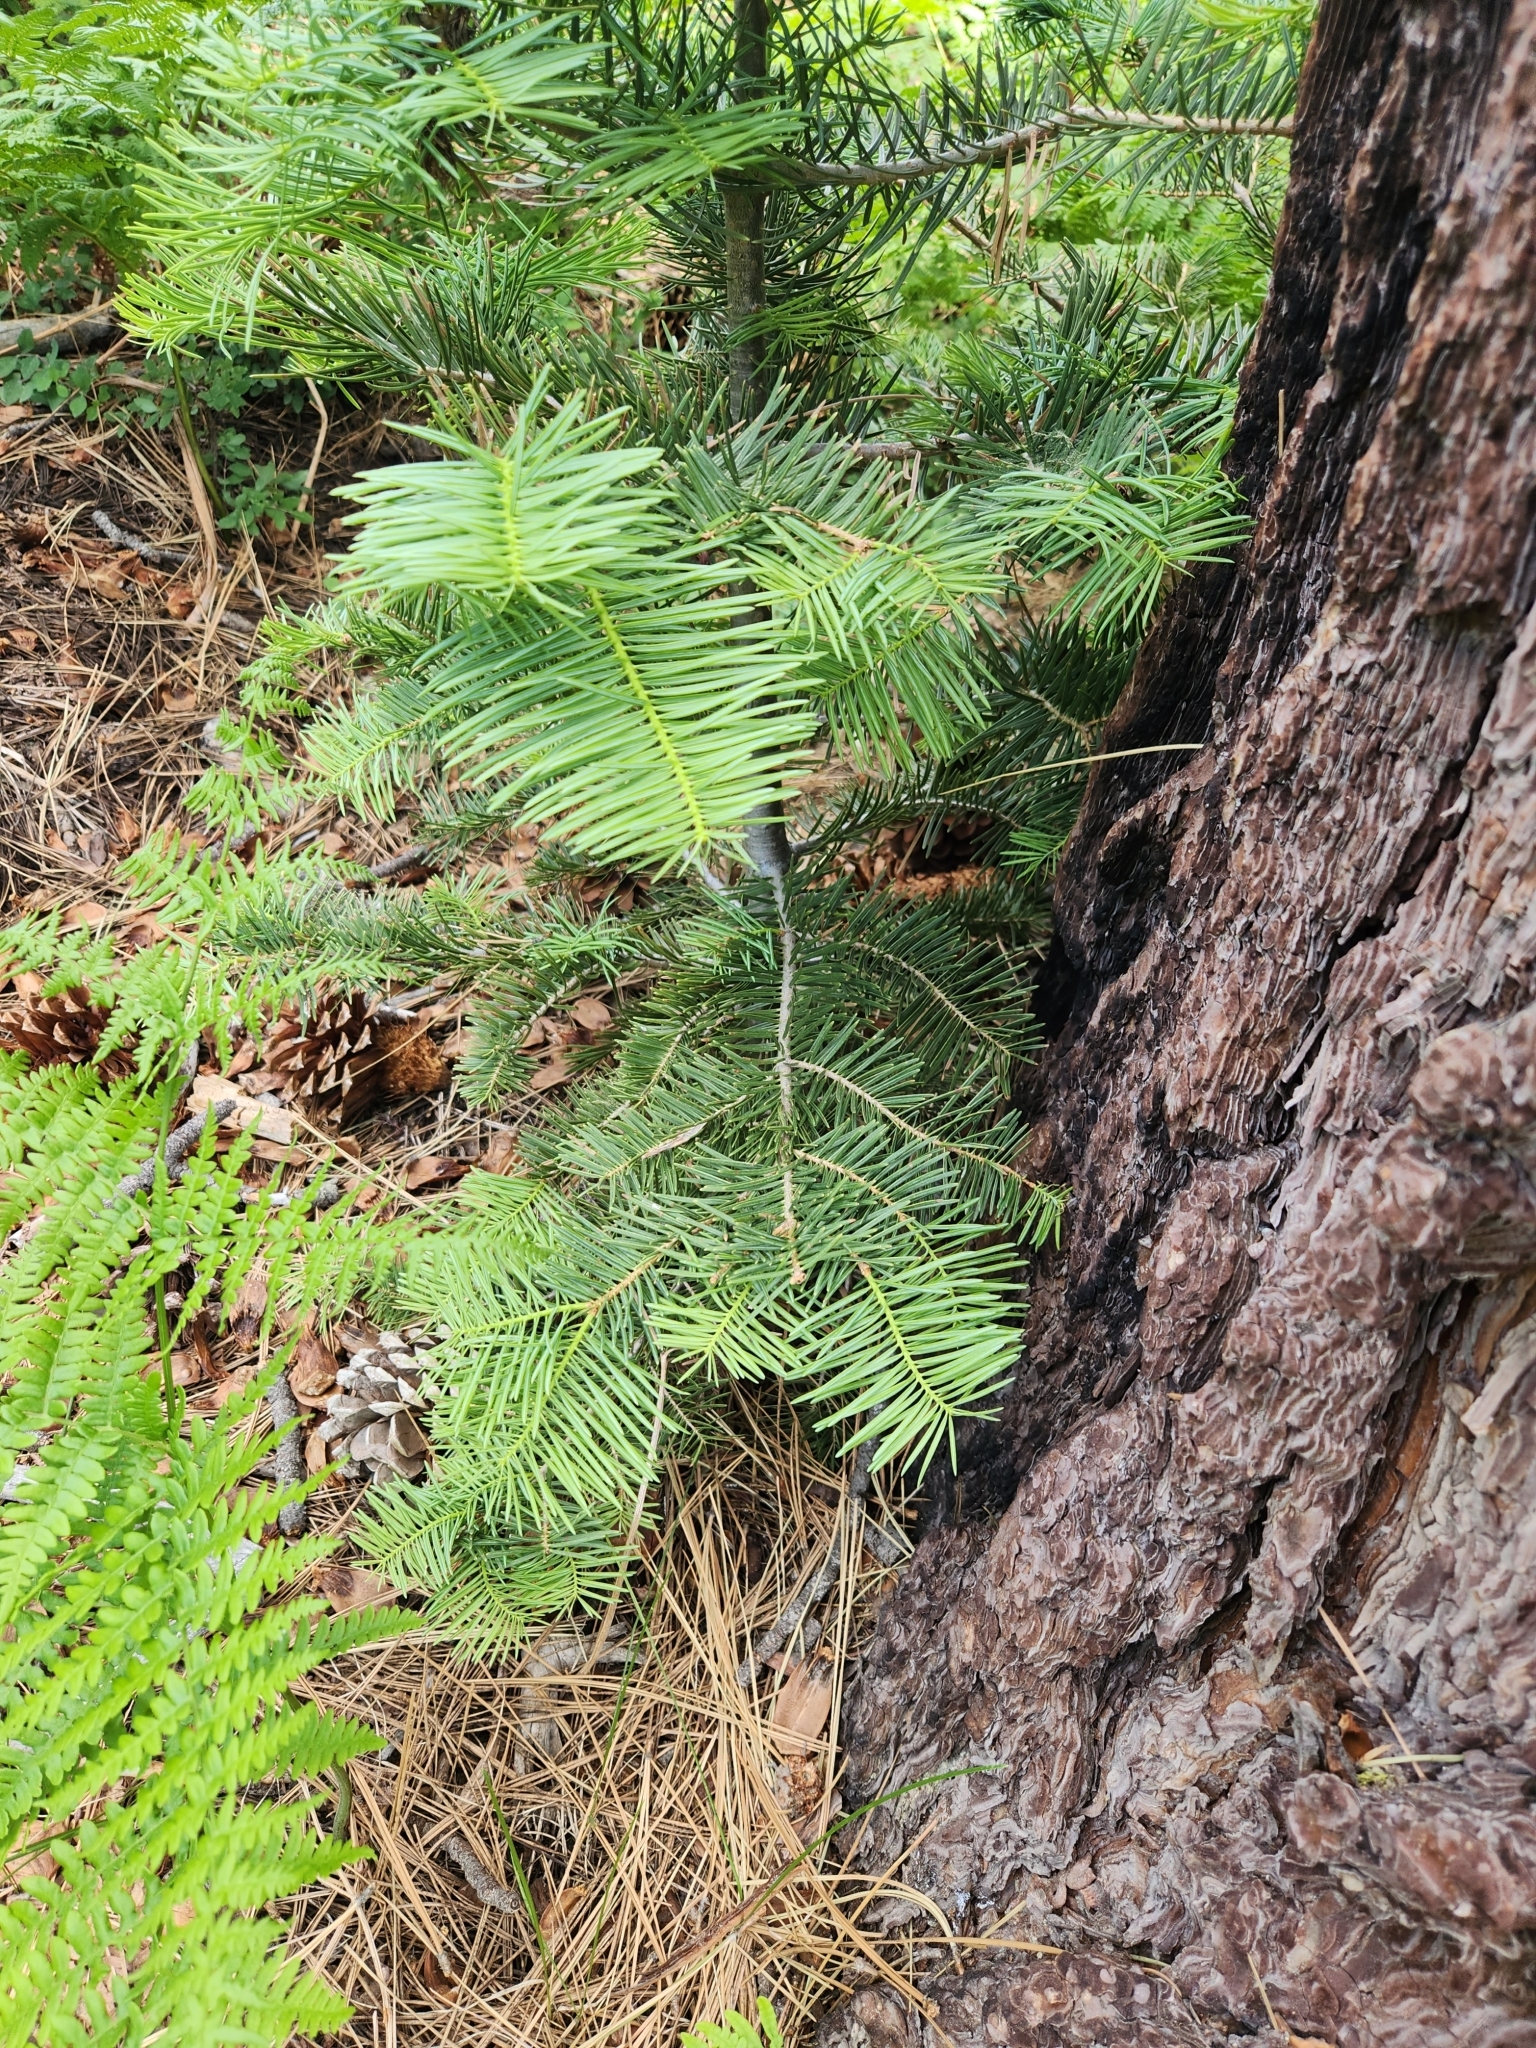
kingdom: Plantae
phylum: Tracheophyta
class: Pinopsida
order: Pinales
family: Pinaceae
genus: Abies
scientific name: Abies concolor
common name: Colorado fir
